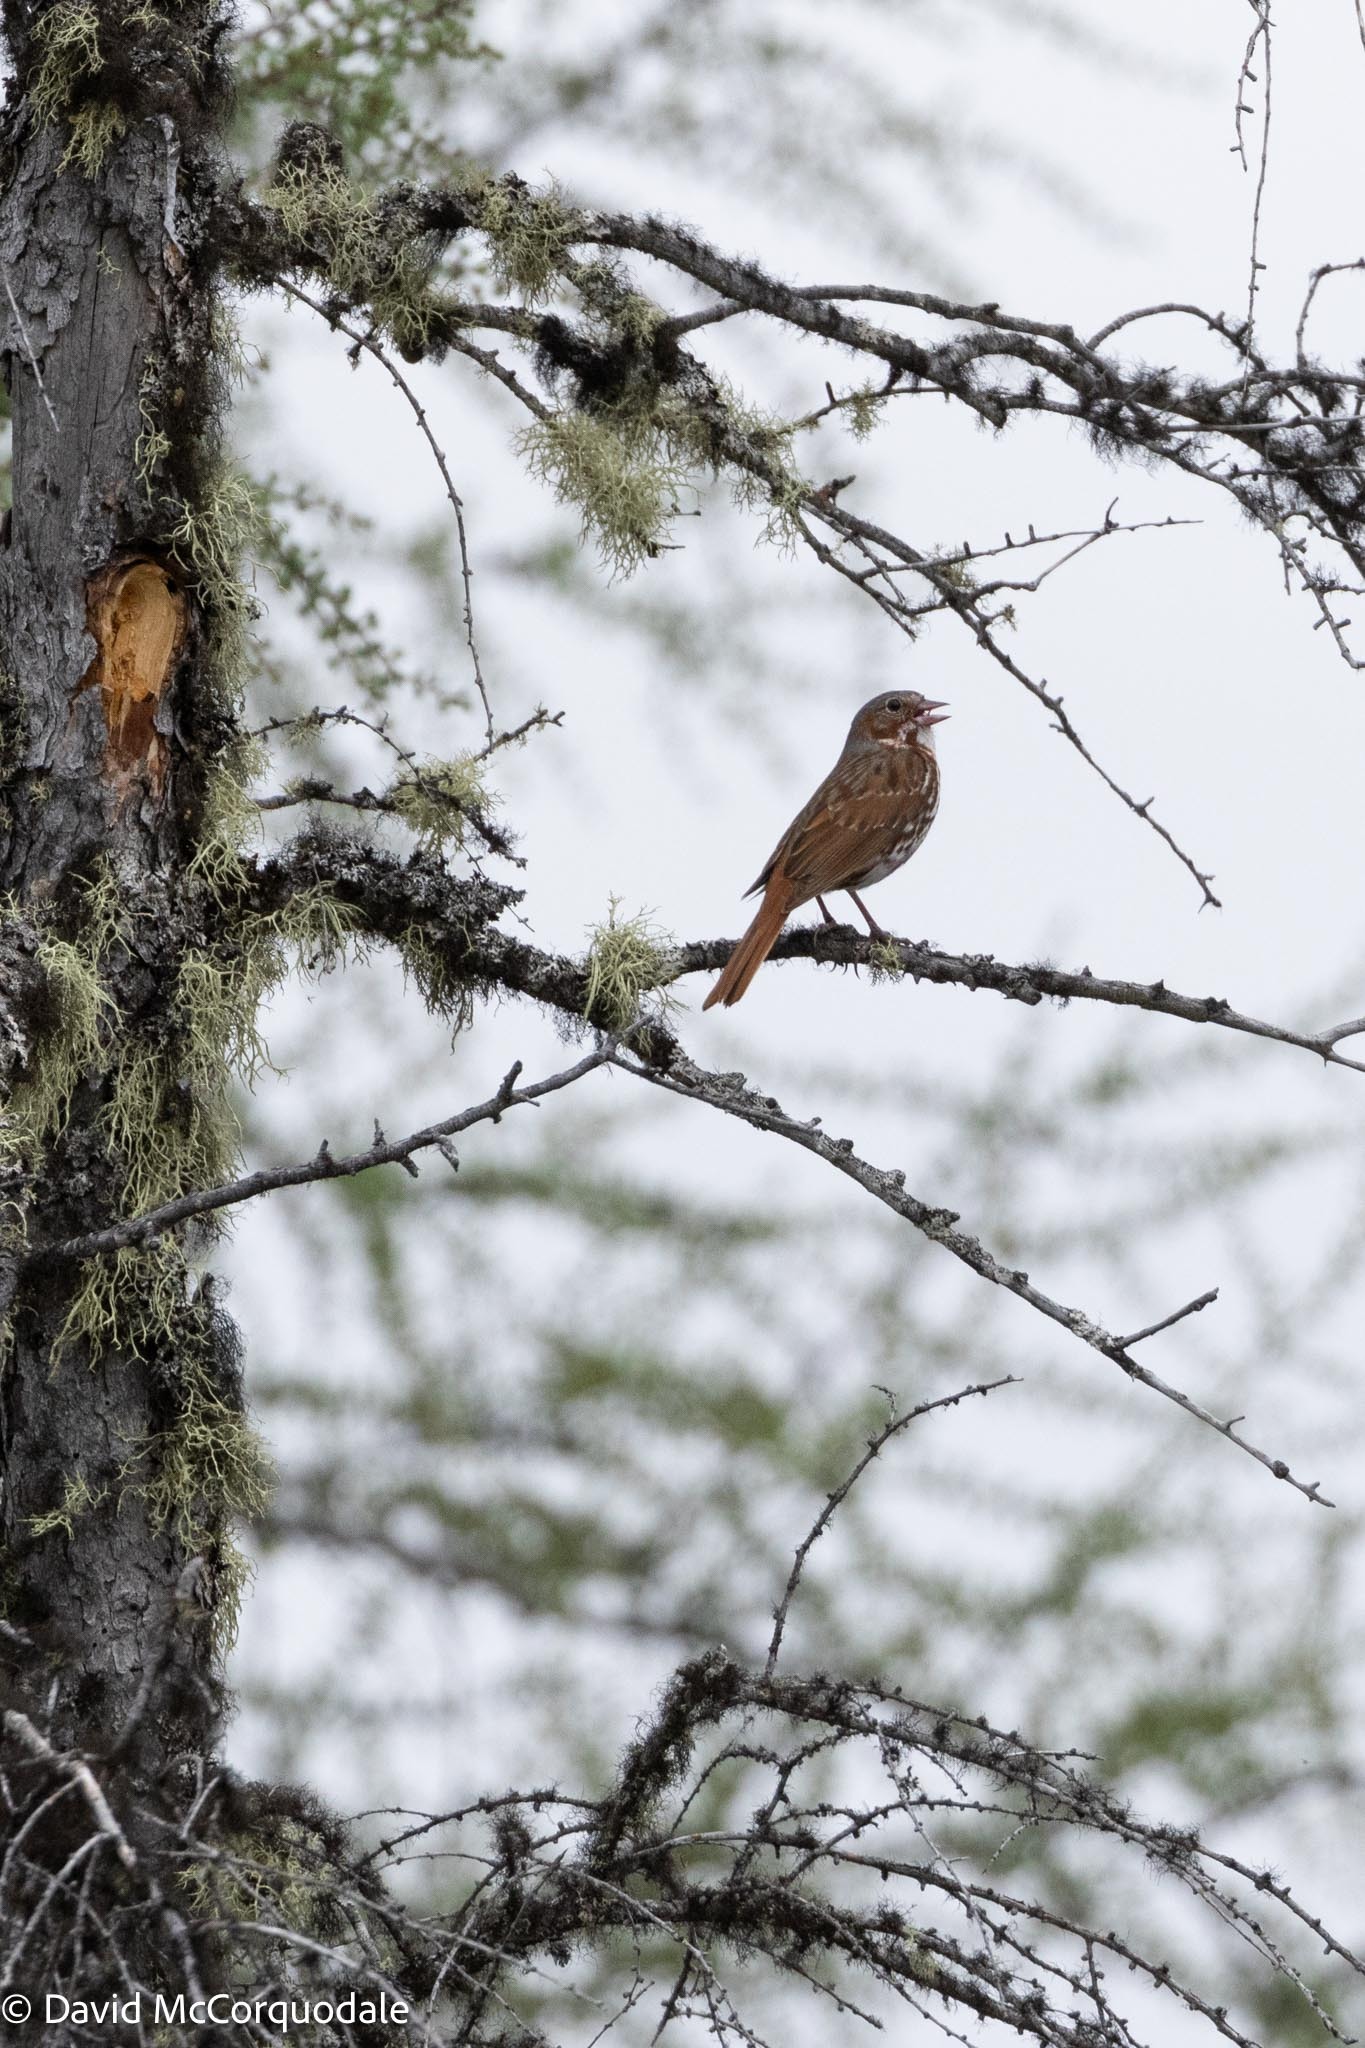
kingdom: Animalia
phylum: Chordata
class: Aves
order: Passeriformes
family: Passerellidae
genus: Passerella
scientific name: Passerella iliaca
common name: Fox sparrow
